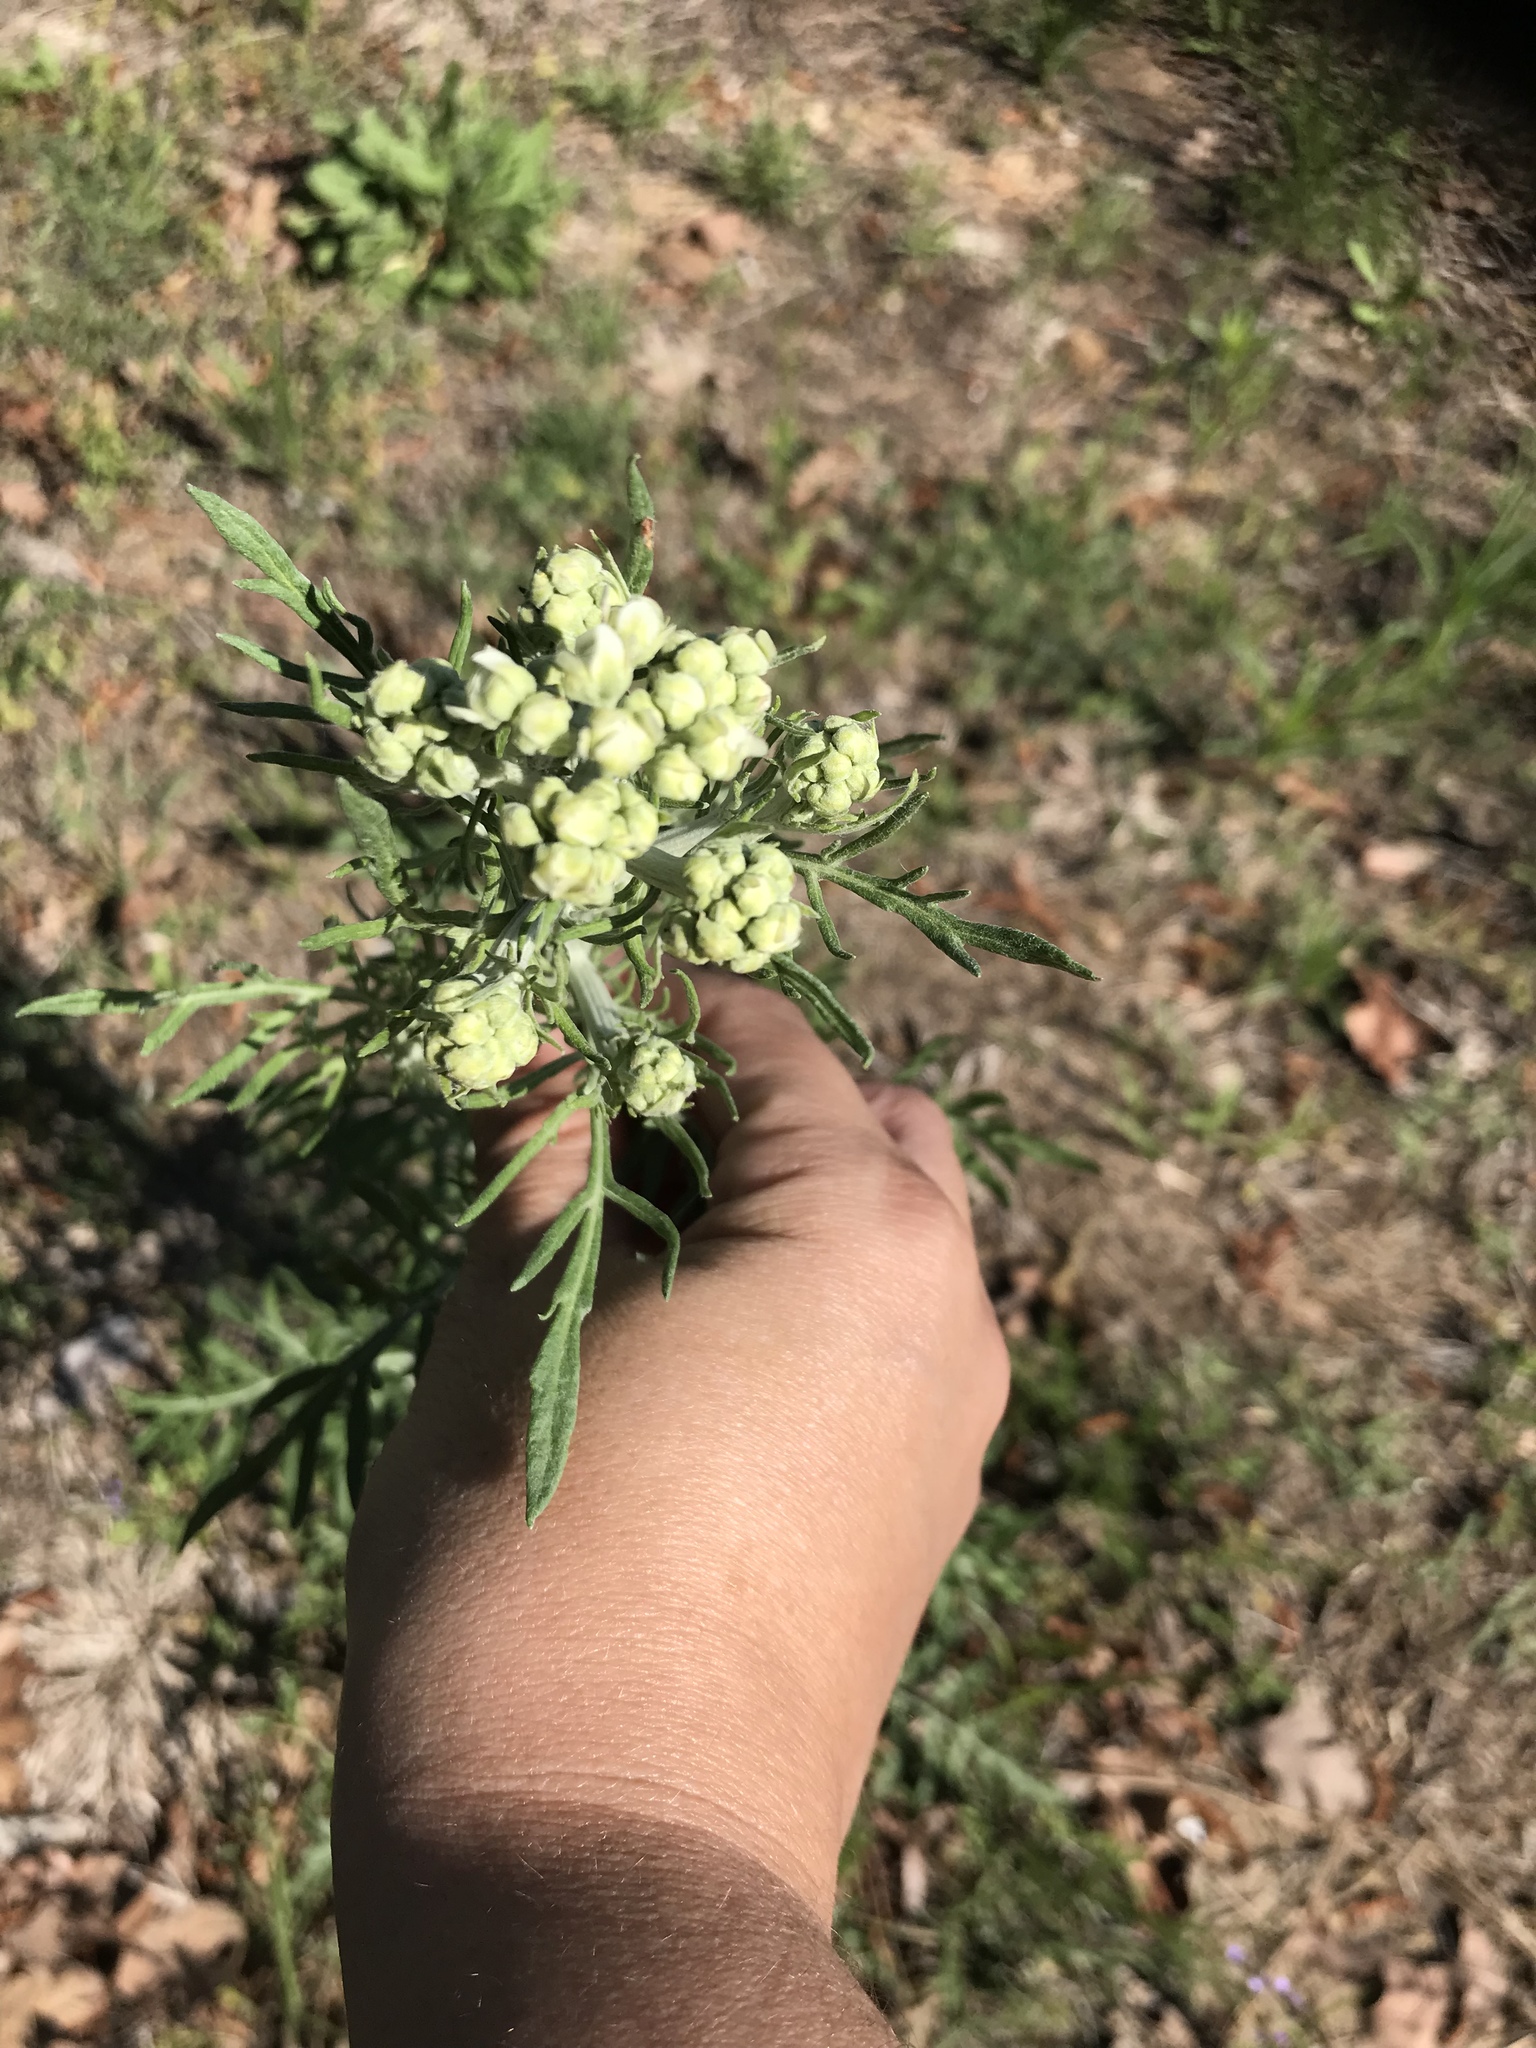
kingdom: Plantae
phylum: Tracheophyta
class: Magnoliopsida
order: Asterales
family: Asteraceae
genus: Hymenopappus
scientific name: Hymenopappus scabiosaeus
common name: Carolina woollywhite
